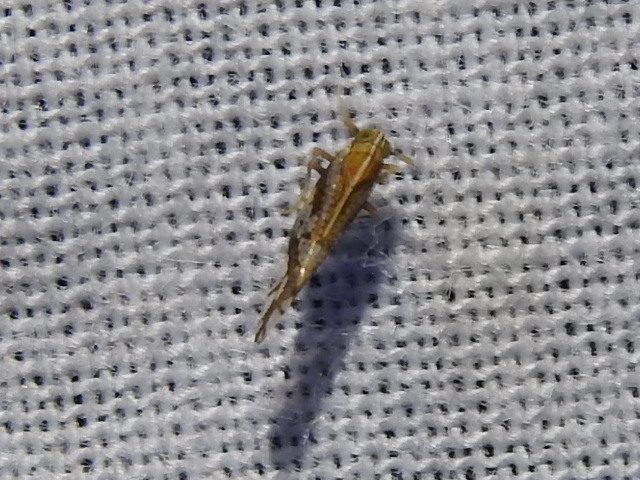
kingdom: Animalia
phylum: Arthropoda
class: Insecta
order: Hemiptera
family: Delphacidae
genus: Liburniella
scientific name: Liburniella ornata
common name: Ornate planthopper
